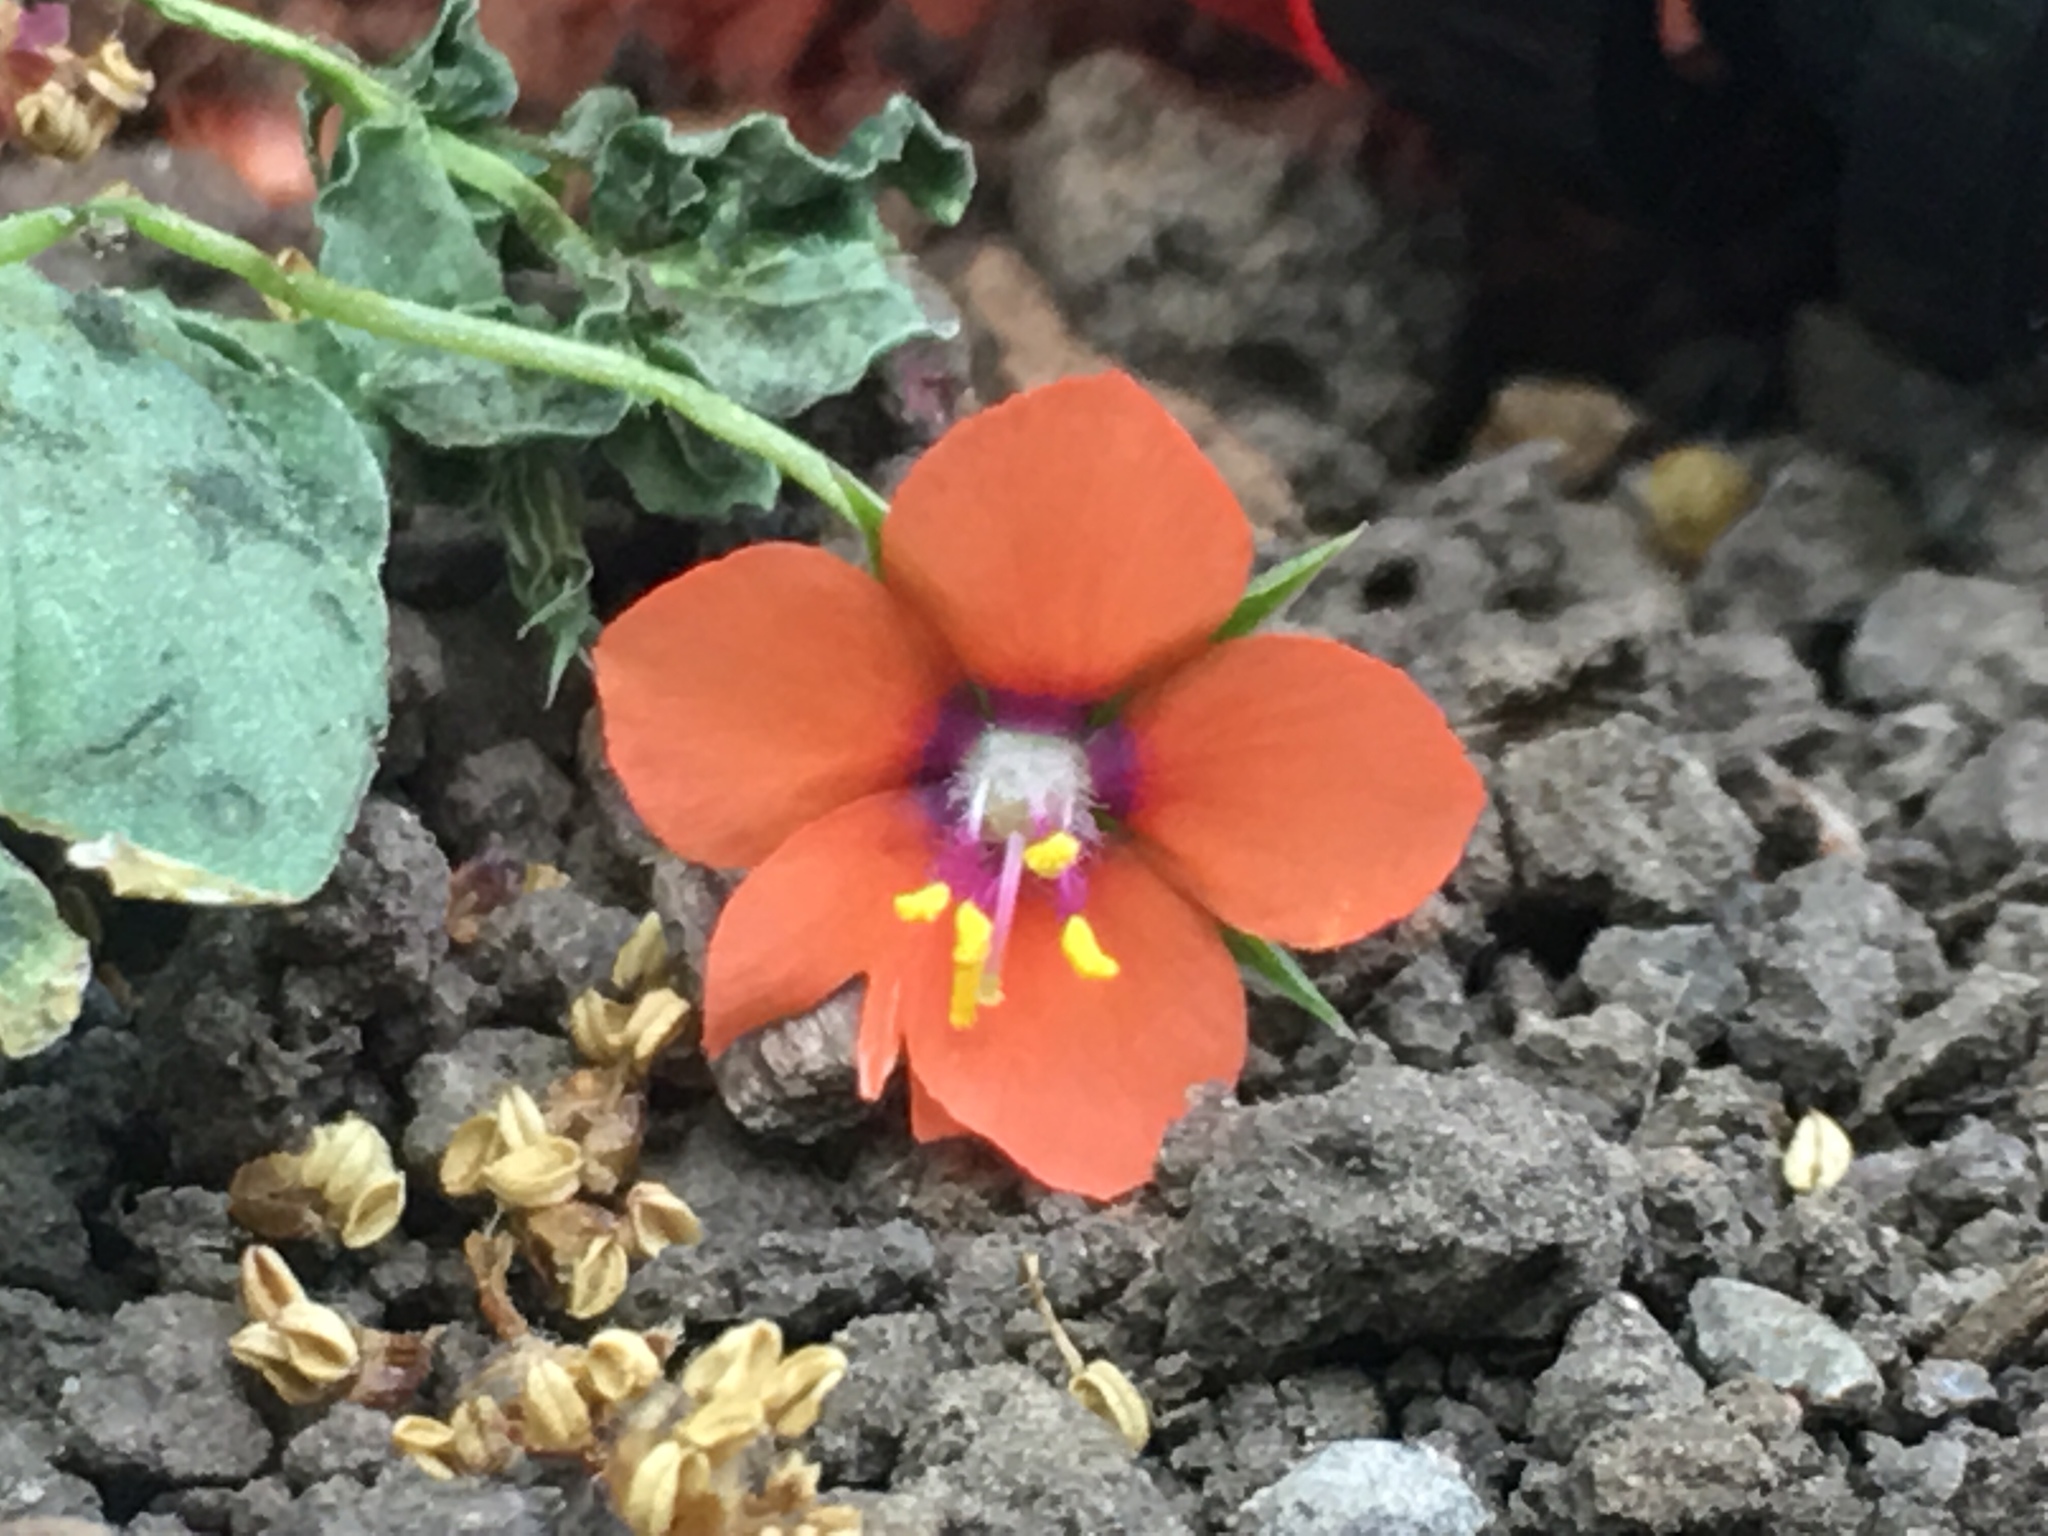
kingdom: Plantae
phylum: Tracheophyta
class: Magnoliopsida
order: Ericales
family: Primulaceae
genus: Lysimachia
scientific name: Lysimachia arvensis
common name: Scarlet pimpernel
